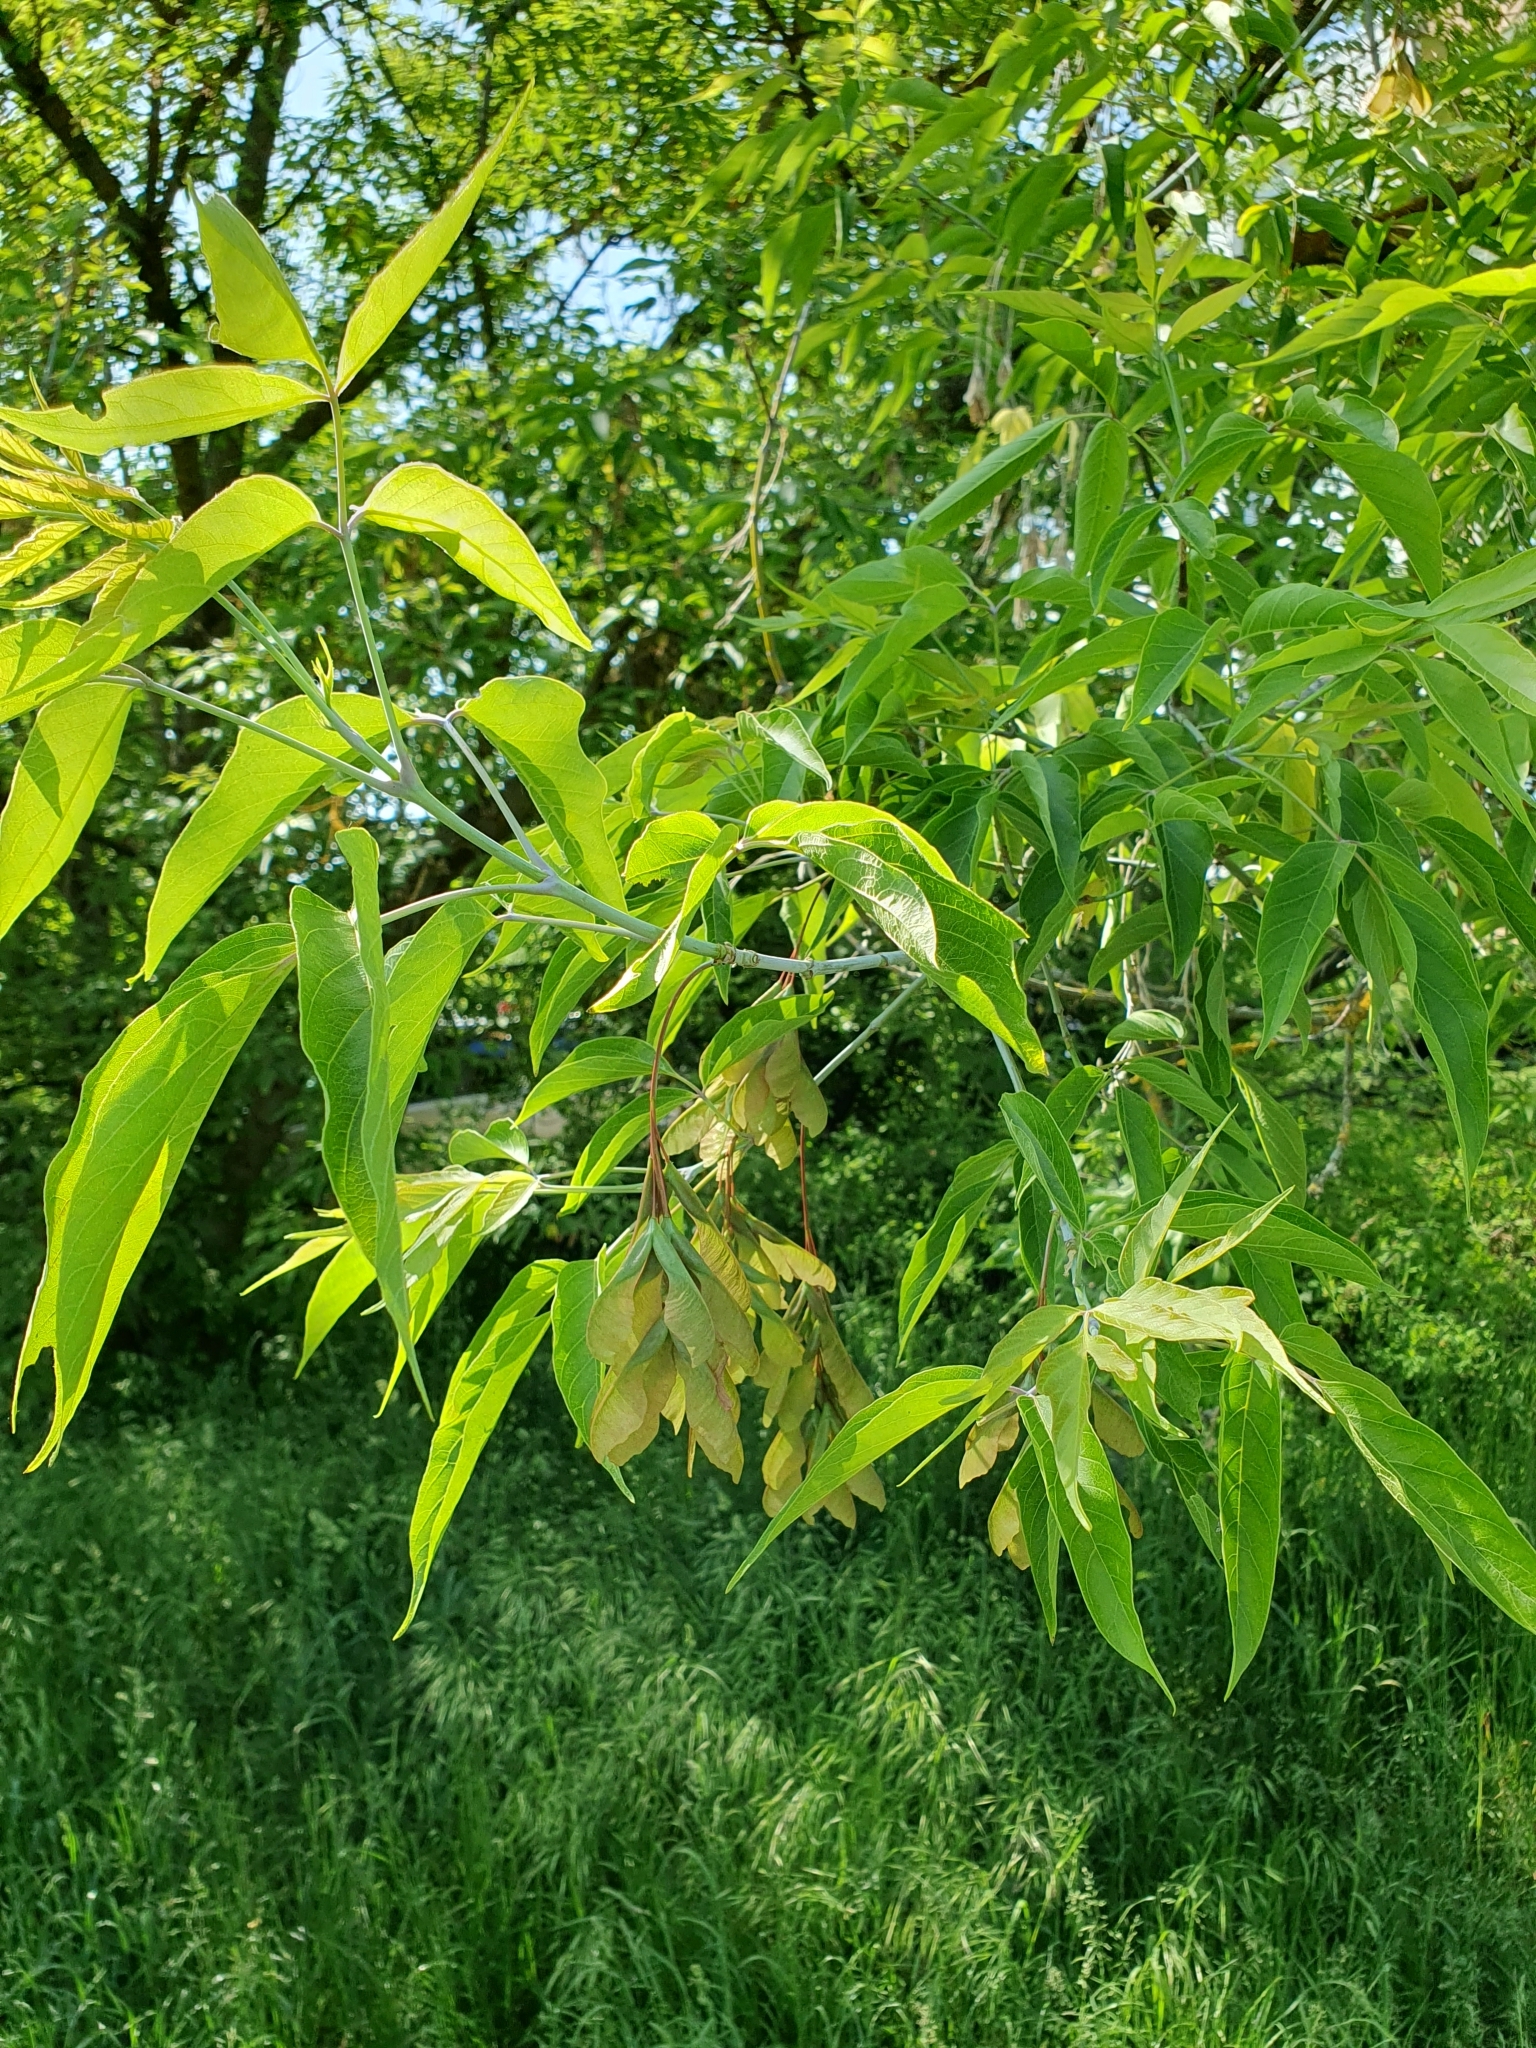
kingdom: Plantae
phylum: Tracheophyta
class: Magnoliopsida
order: Sapindales
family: Sapindaceae
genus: Acer
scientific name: Acer negundo
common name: Ashleaf maple
